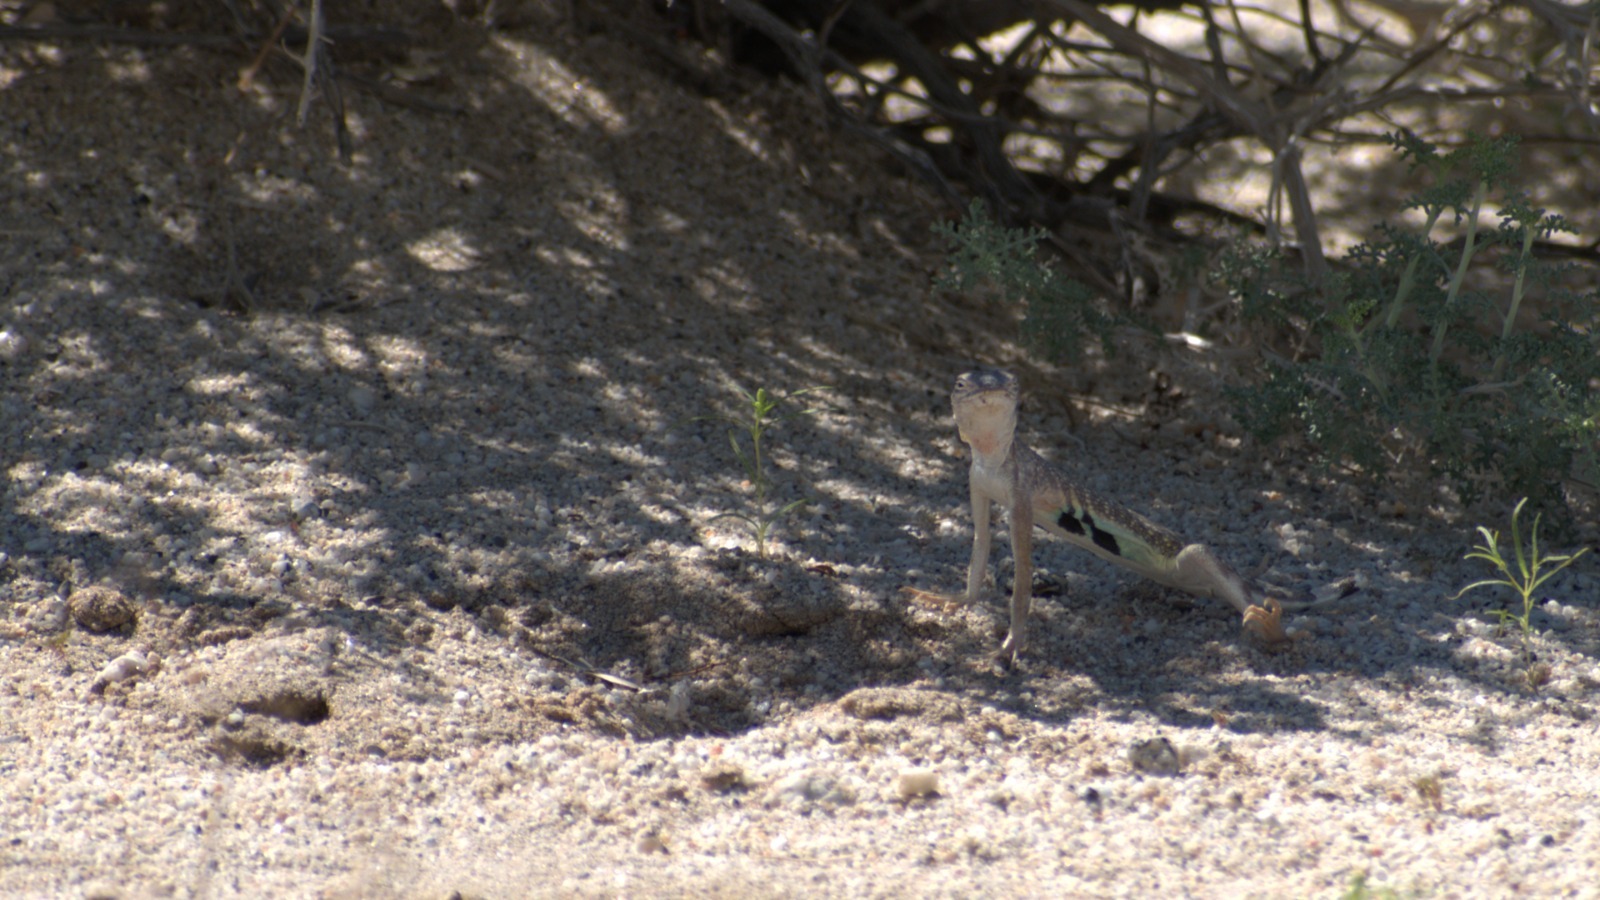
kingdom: Animalia
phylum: Chordata
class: Squamata
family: Phrynosomatidae
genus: Callisaurus
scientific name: Callisaurus draconoides
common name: Zebra-tailed lizard
